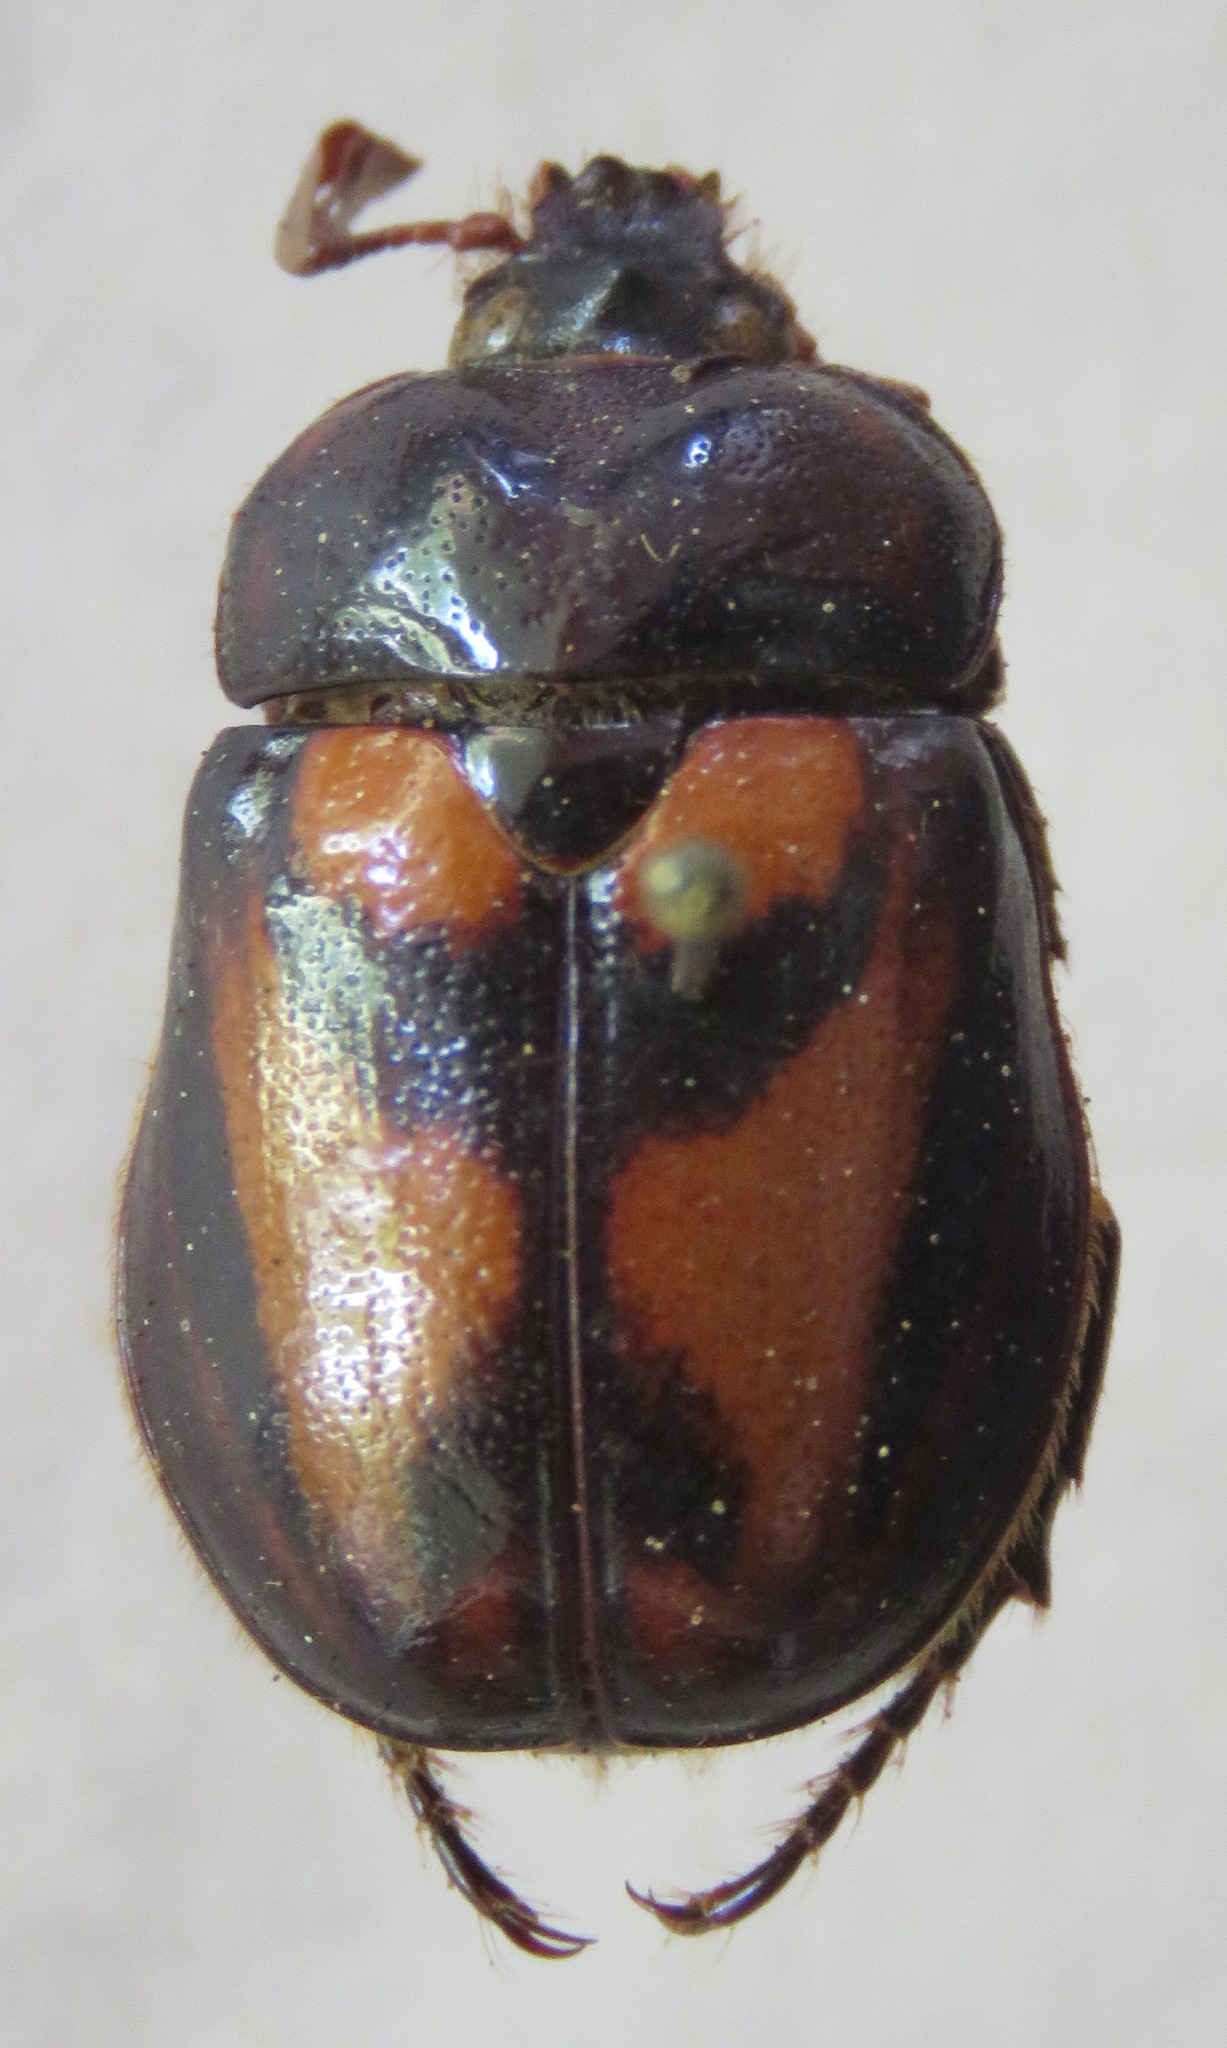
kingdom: Animalia
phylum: Arthropoda
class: Insecta
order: Coleoptera
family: Scarabaeidae
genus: Oryctomorphus
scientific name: Oryctomorphus bimaculatus
